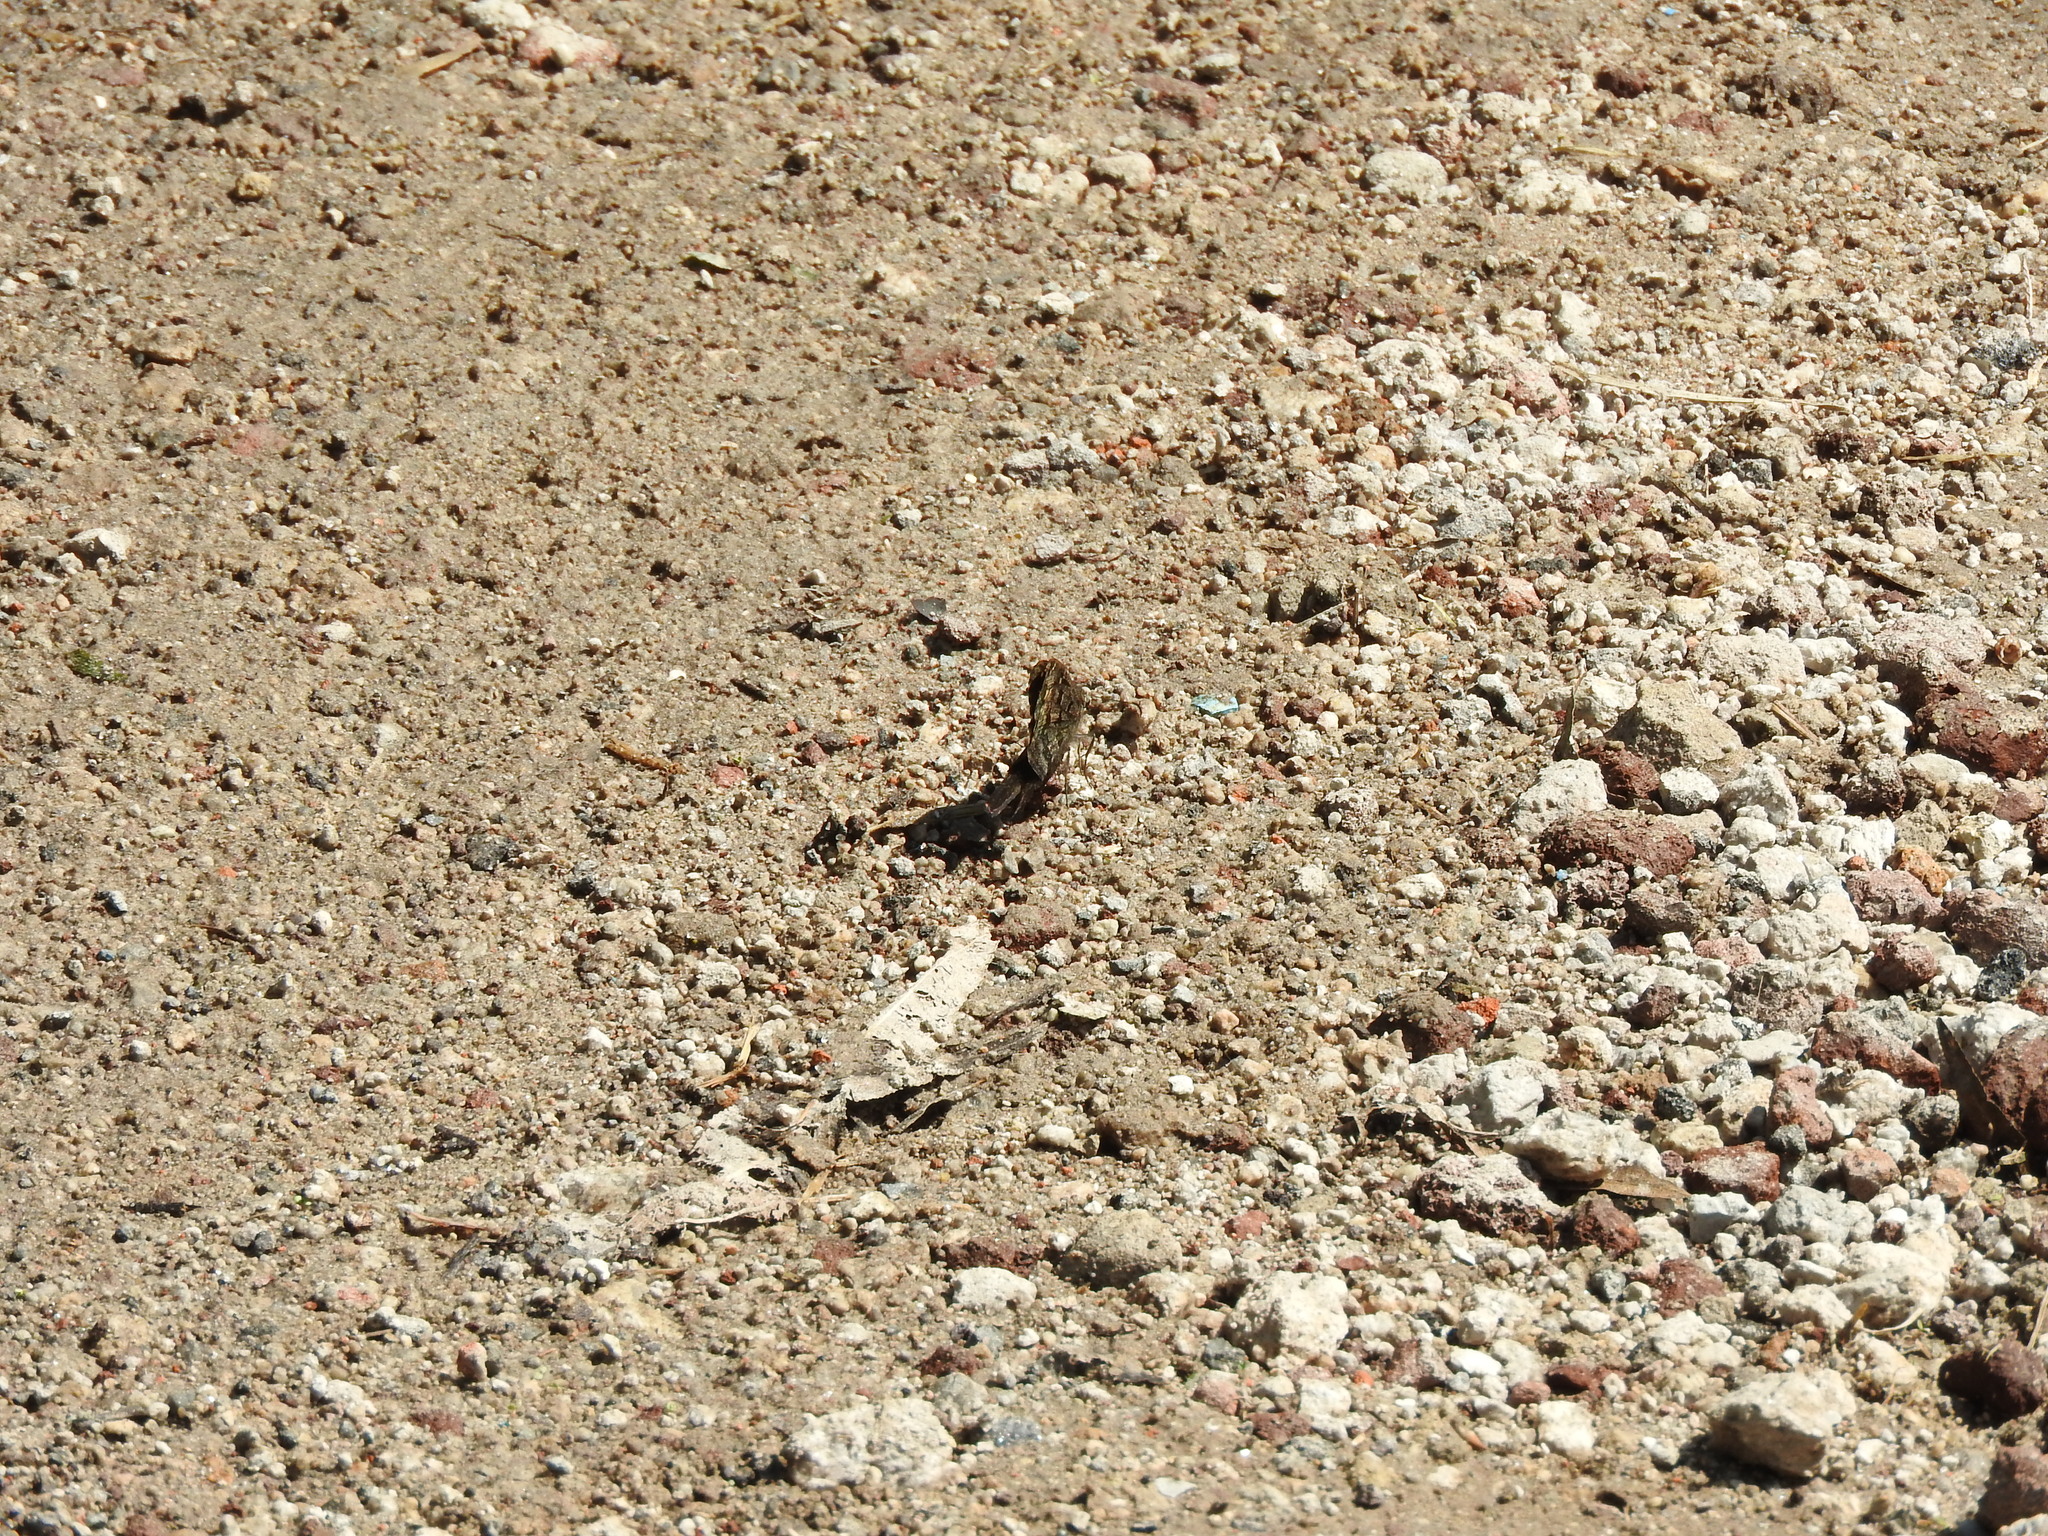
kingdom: Animalia
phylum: Arthropoda
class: Insecta
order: Lepidoptera
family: Hesperiidae
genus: Thorybes
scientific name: Thorybes
